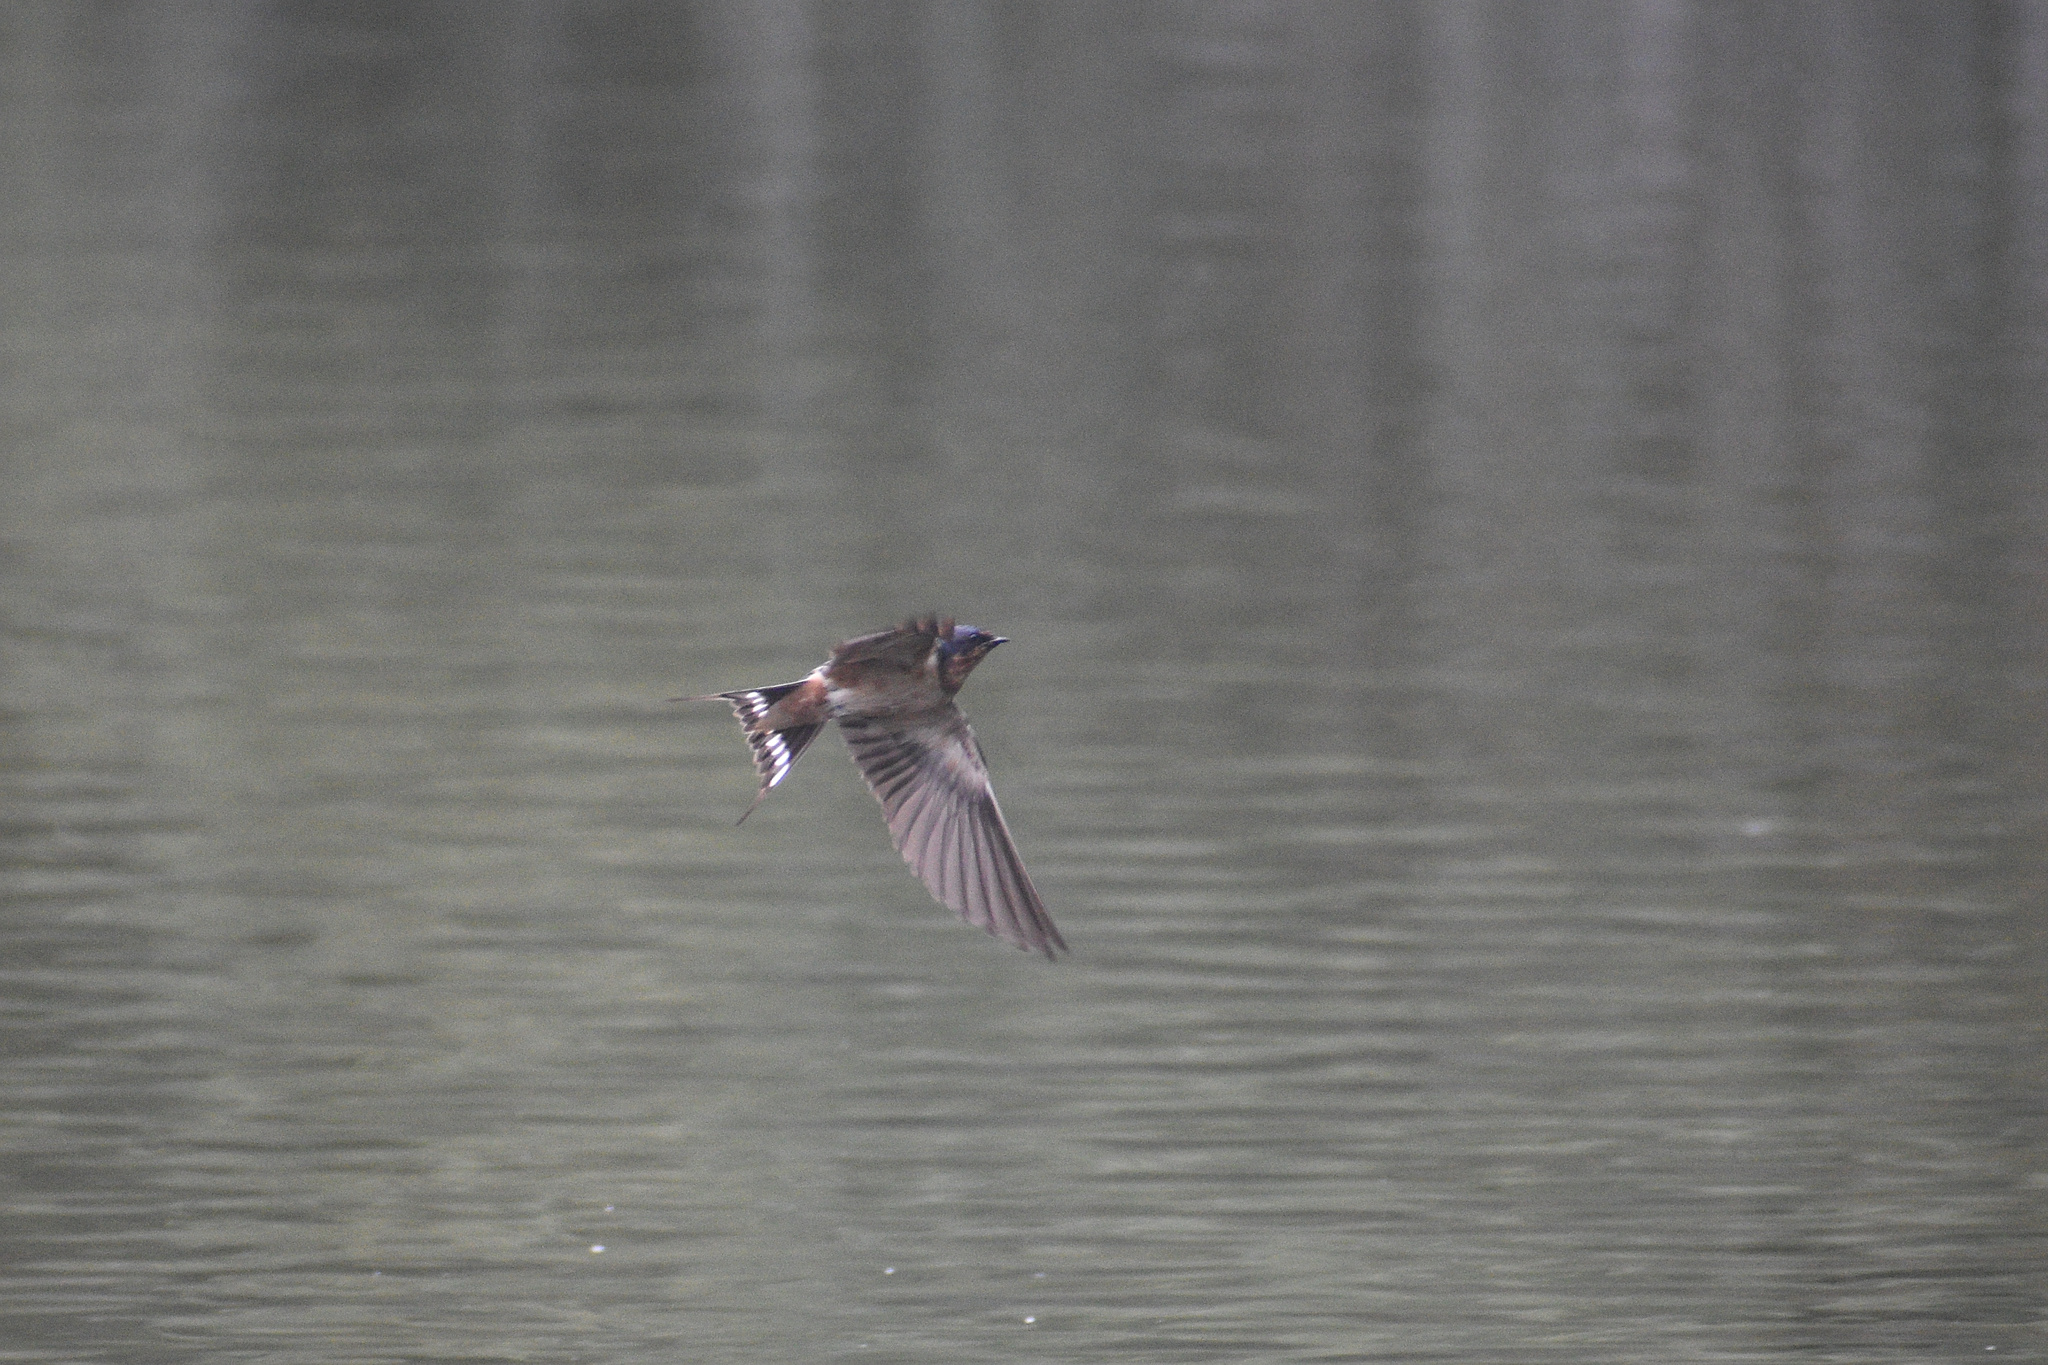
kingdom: Animalia
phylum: Chordata
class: Aves
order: Passeriformes
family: Hirundinidae
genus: Hirundo
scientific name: Hirundo rustica
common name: Barn swallow
